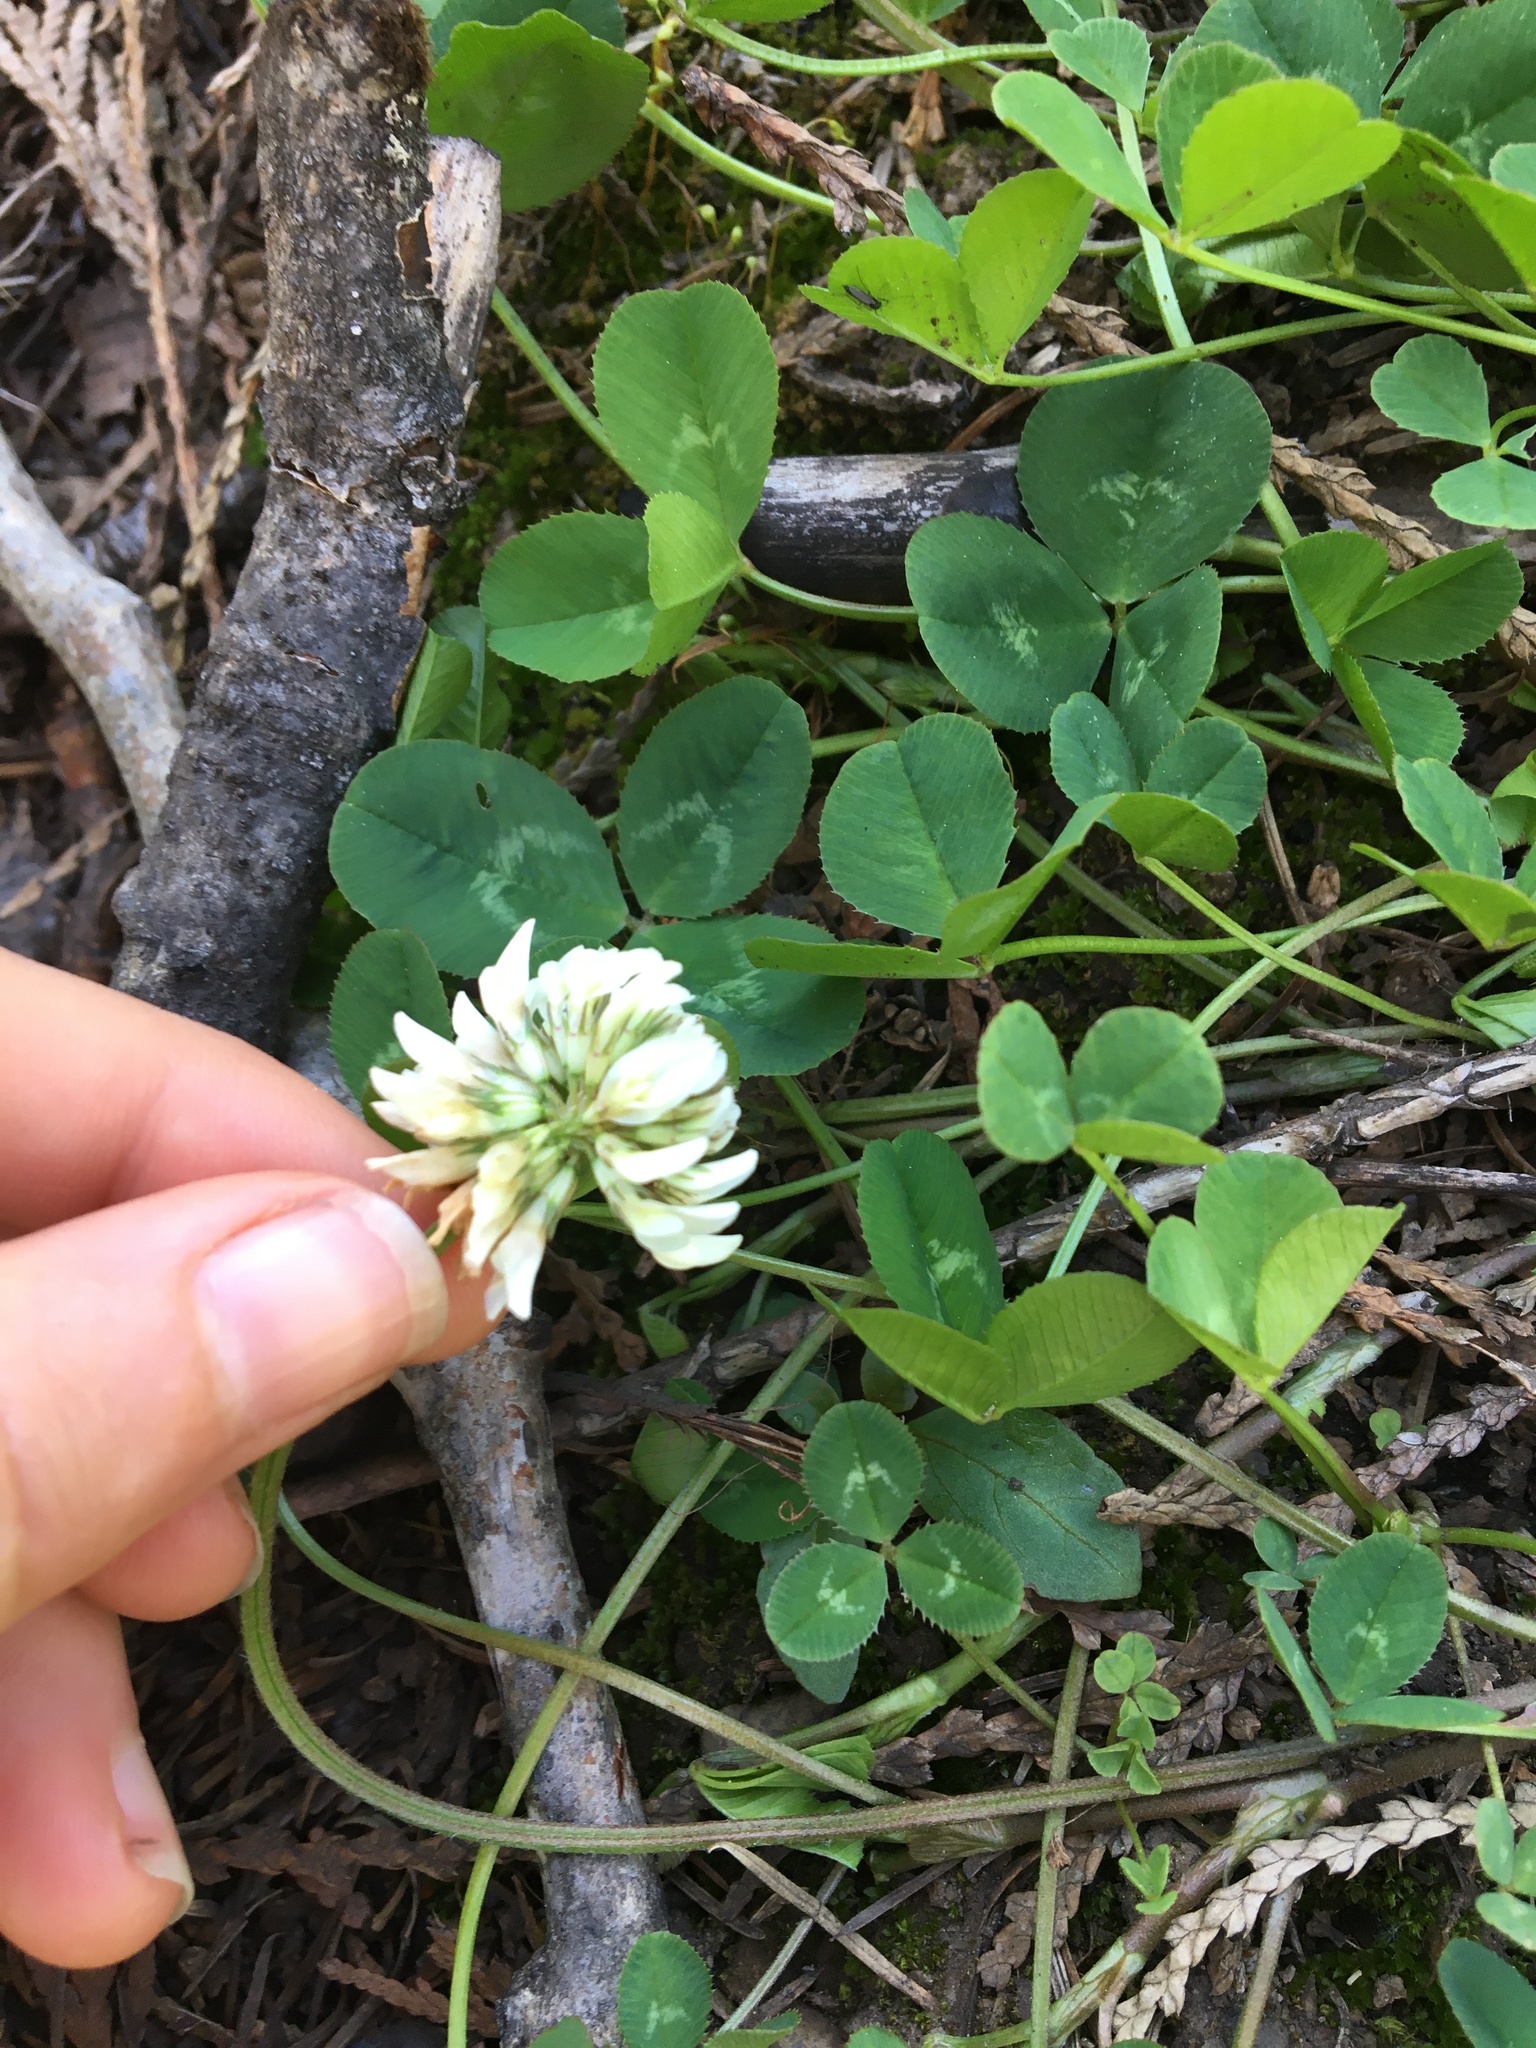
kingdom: Plantae
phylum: Tracheophyta
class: Magnoliopsida
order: Fabales
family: Fabaceae
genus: Trifolium
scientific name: Trifolium repens
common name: White clover
